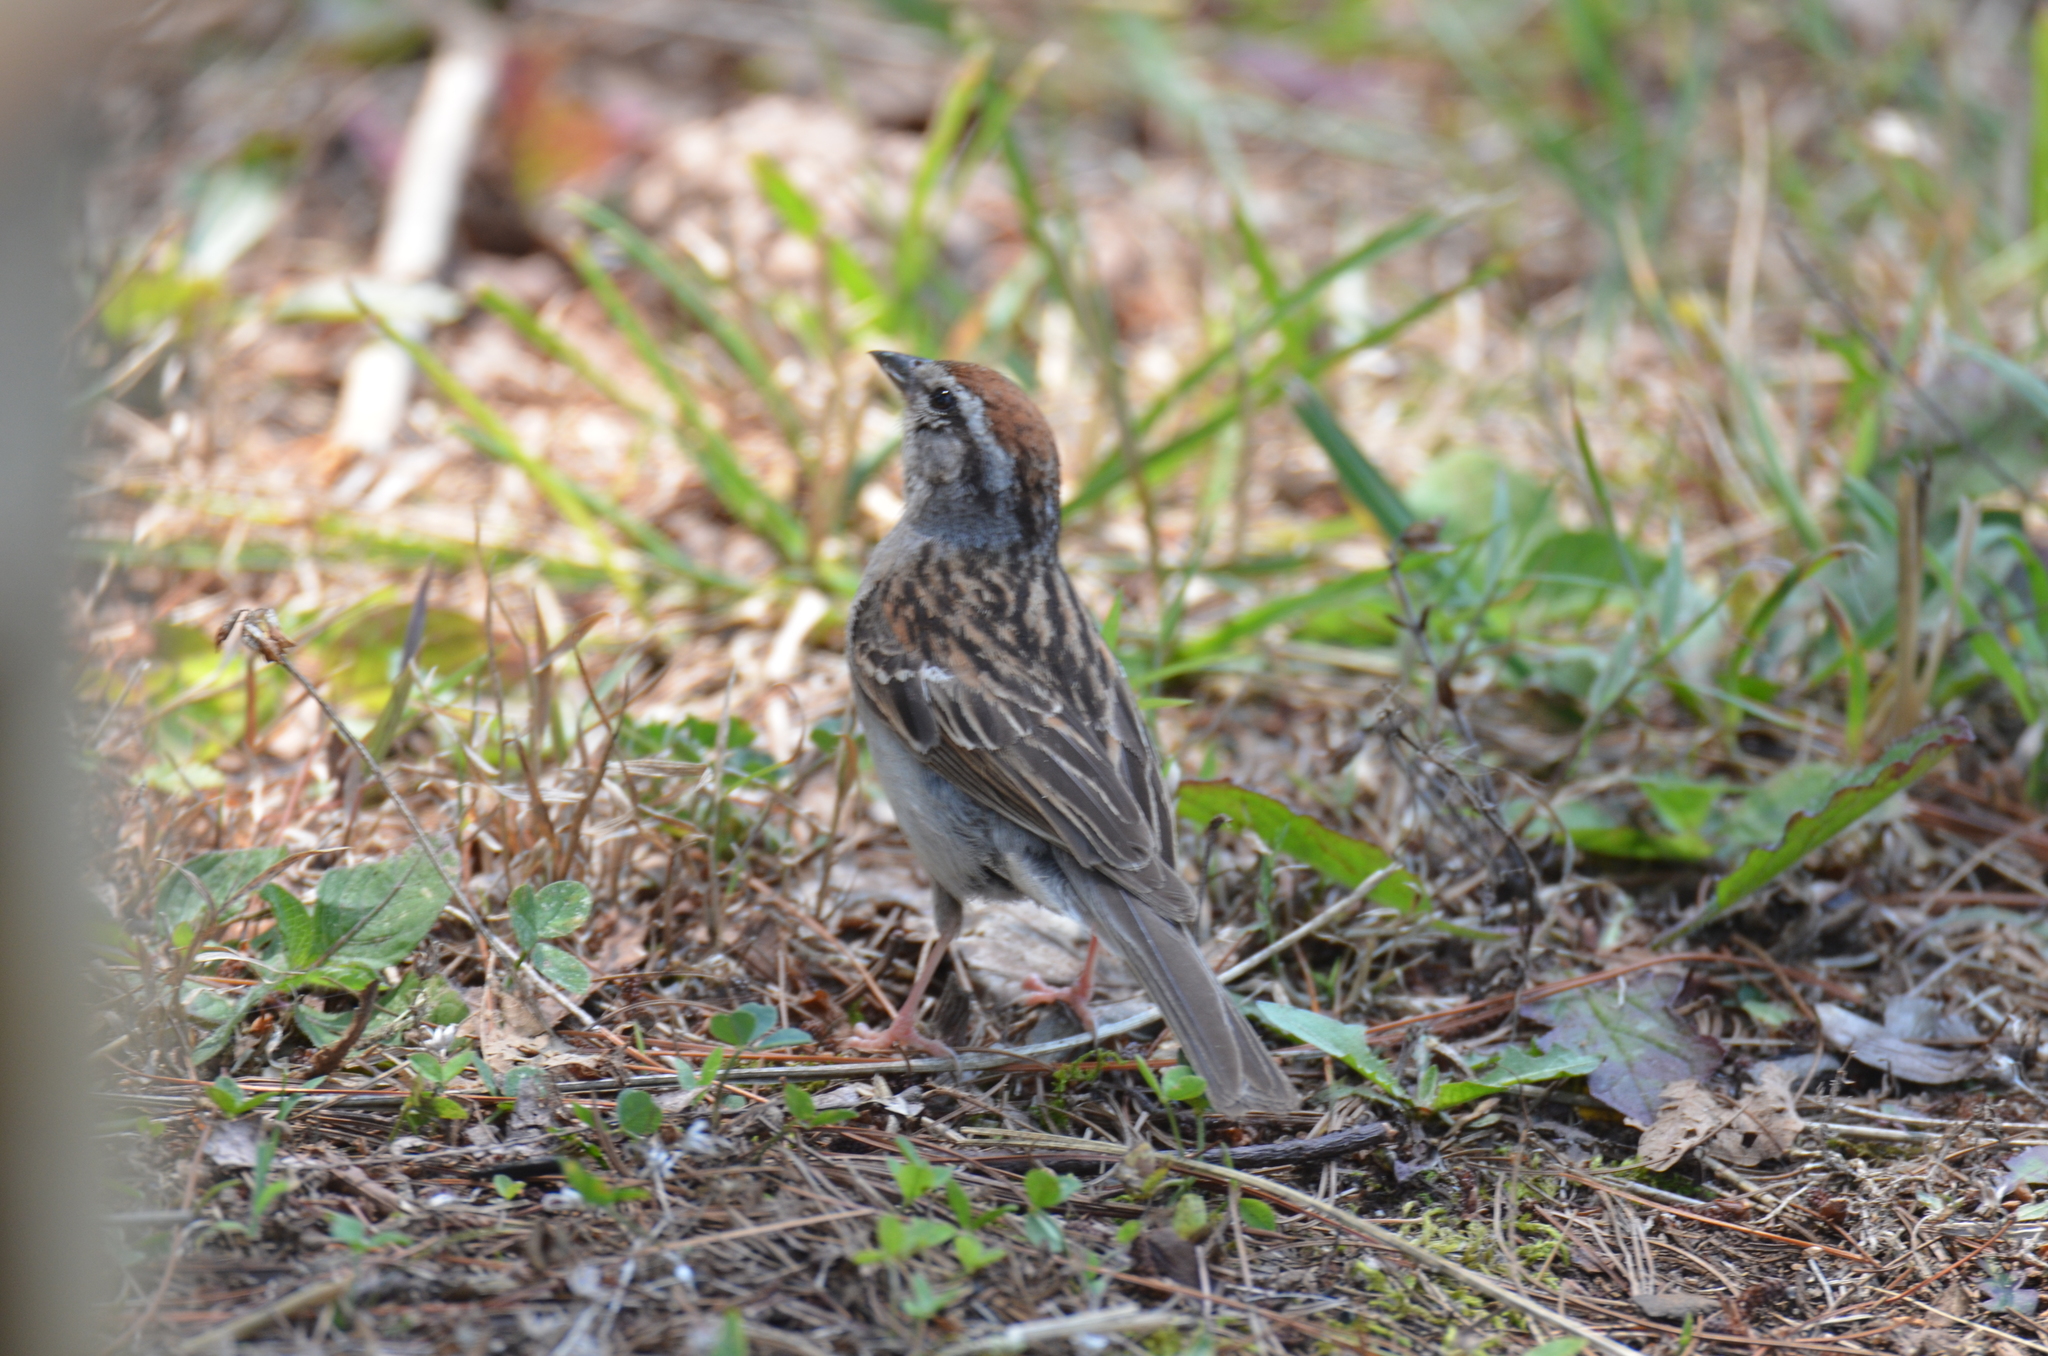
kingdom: Animalia
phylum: Chordata
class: Aves
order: Passeriformes
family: Passerellidae
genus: Spizella
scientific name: Spizella passerina
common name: Chipping sparrow
